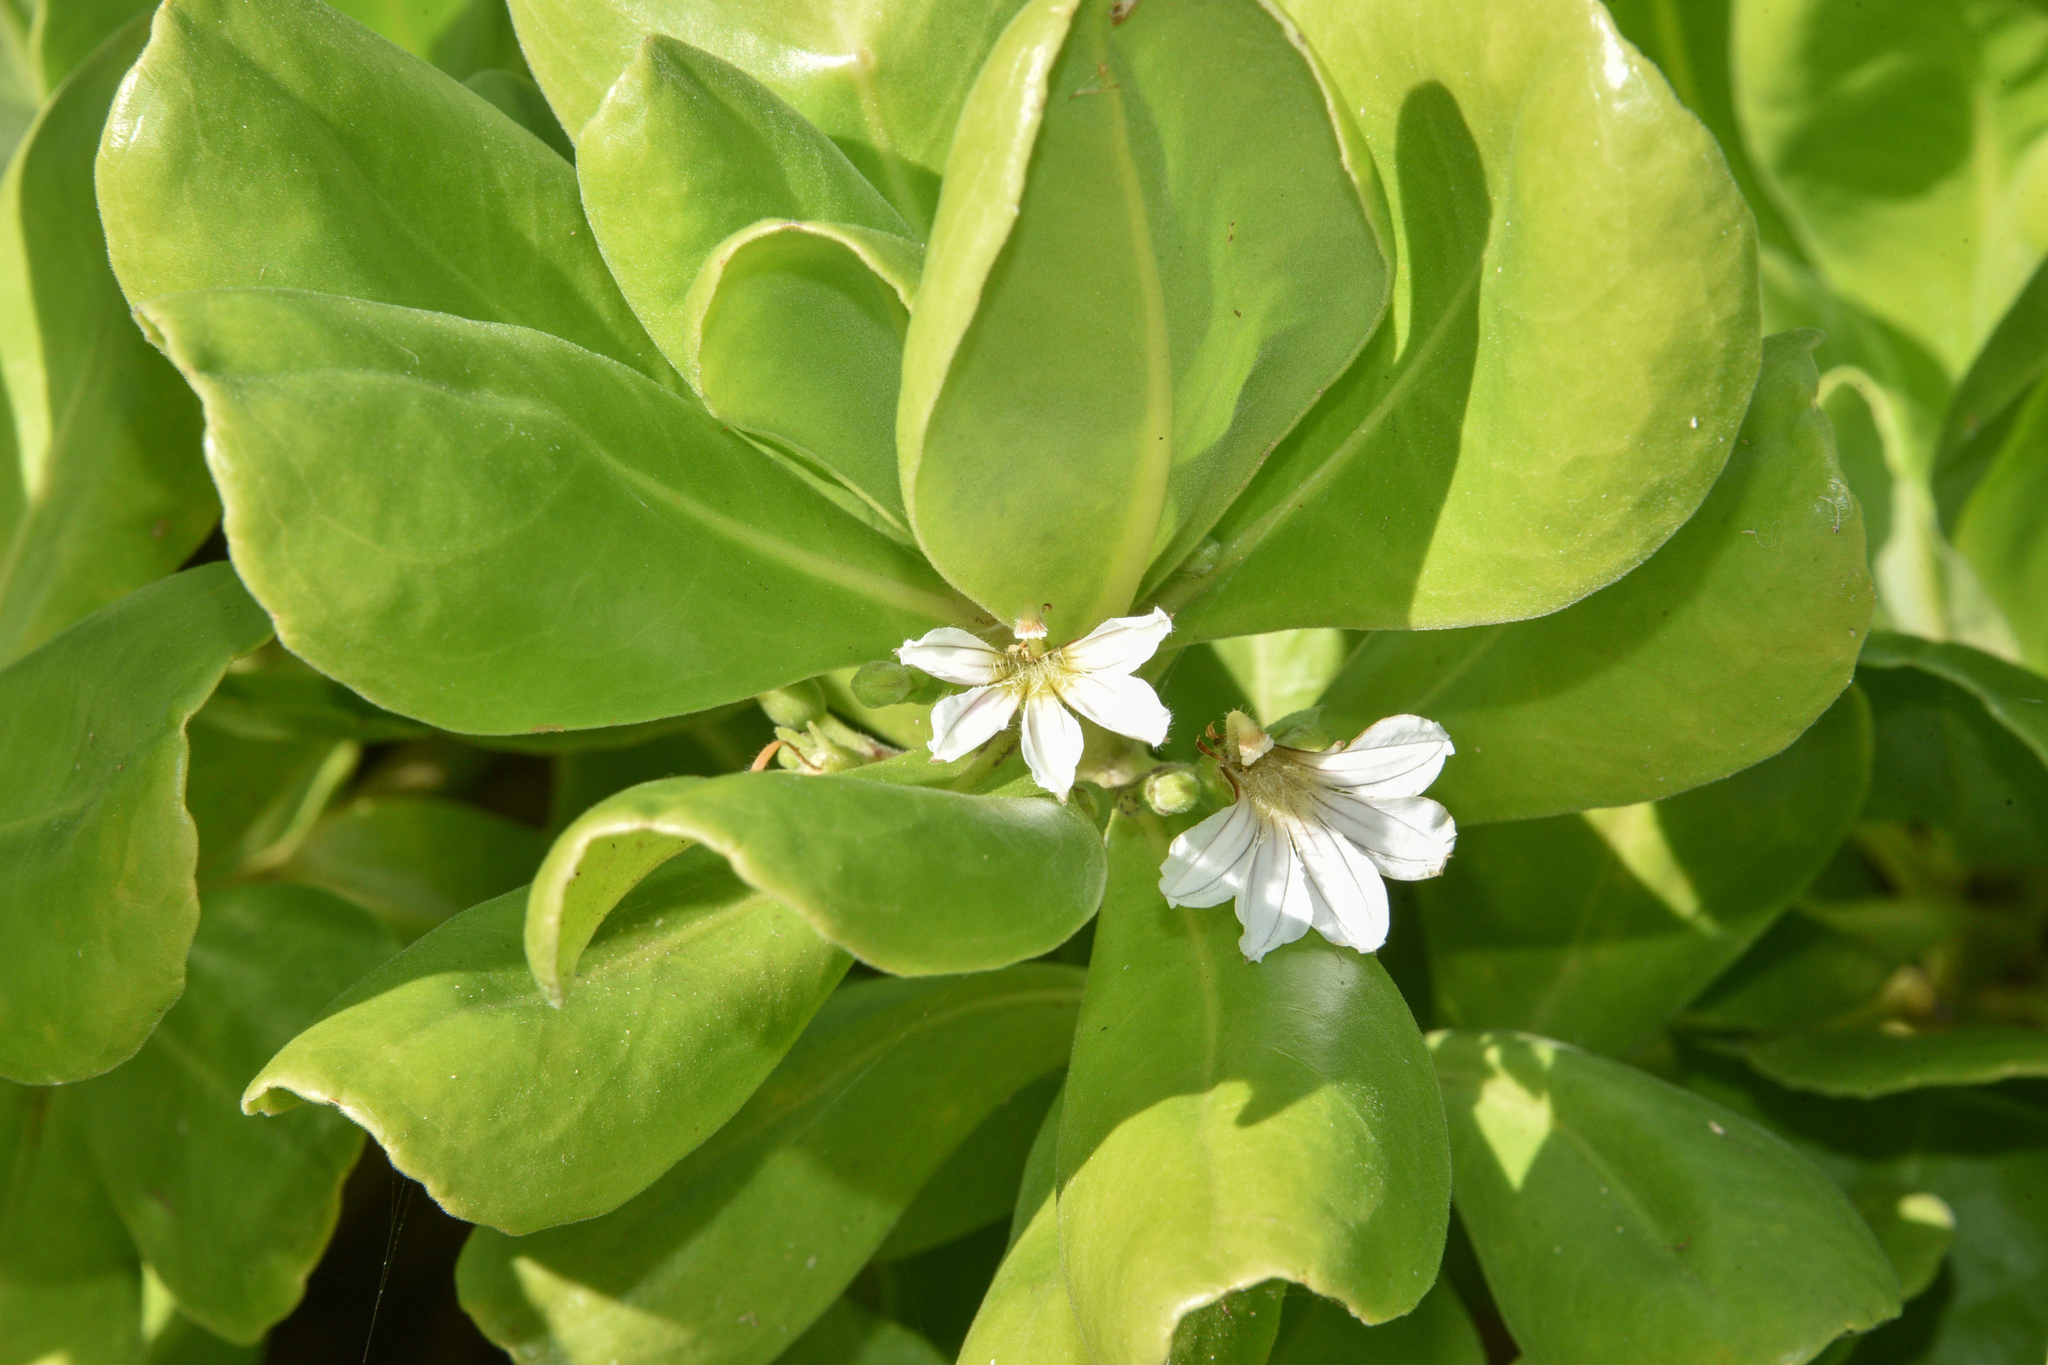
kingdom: Plantae
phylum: Tracheophyta
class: Magnoliopsida
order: Asterales
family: Goodeniaceae
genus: Scaevola
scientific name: Scaevola taccada
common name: Sea lettucetree
